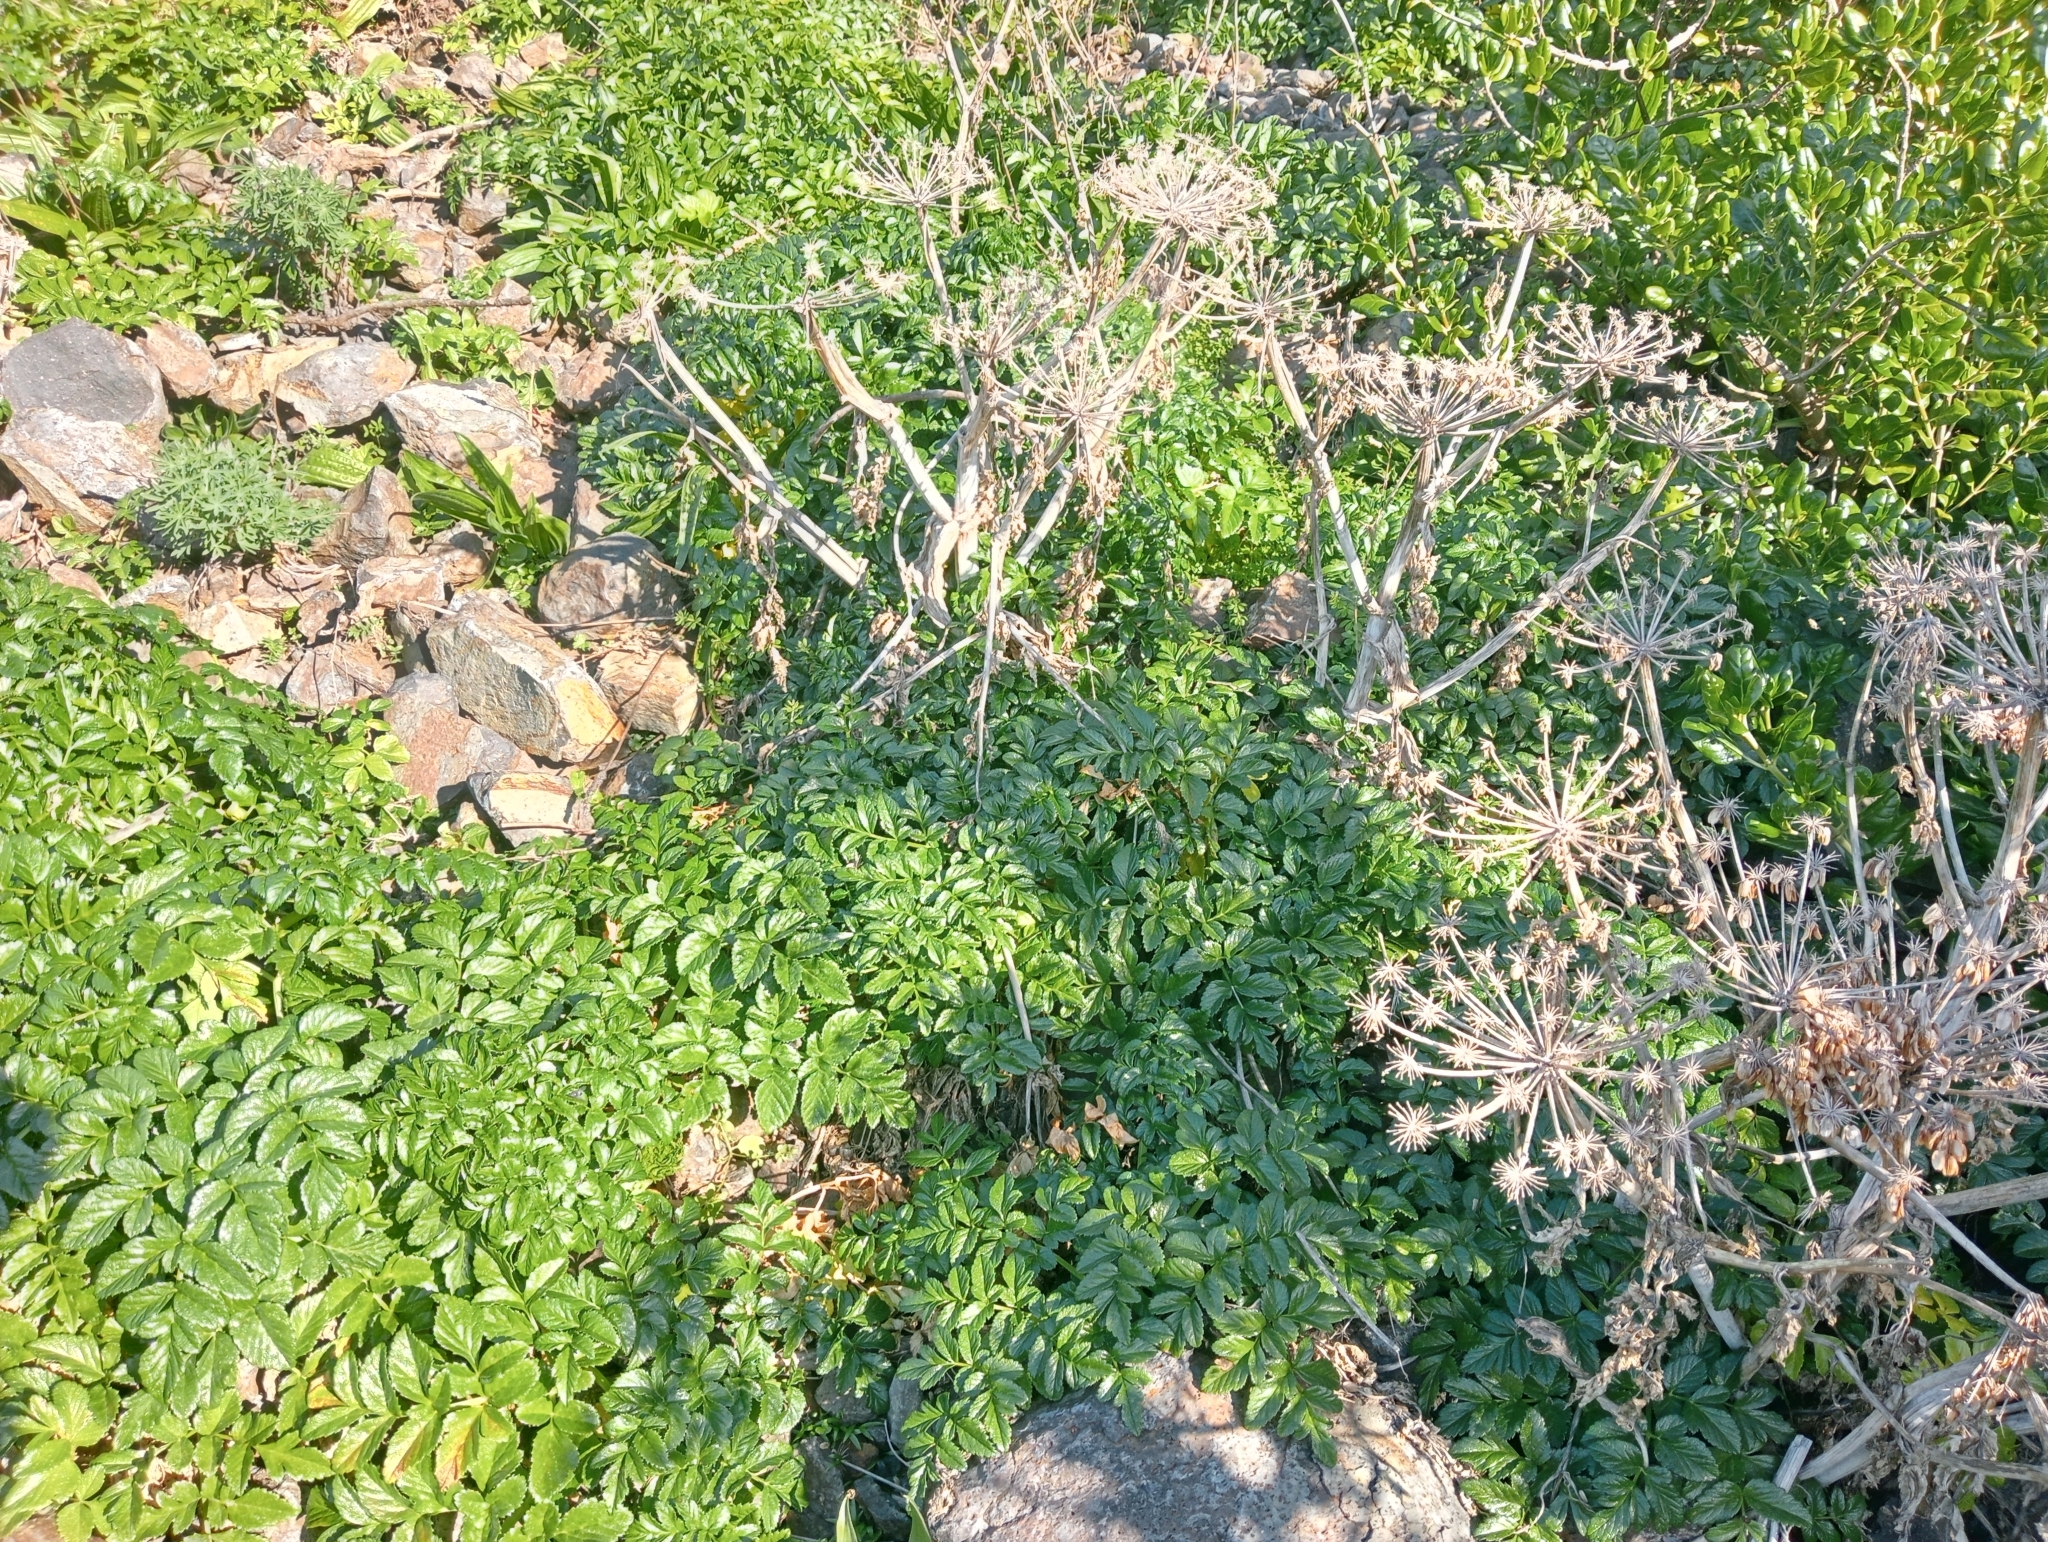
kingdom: Plantae
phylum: Tracheophyta
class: Magnoliopsida
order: Apiales
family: Apiaceae
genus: Angelica
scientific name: Angelica pachycarpa
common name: Portuguese angelica
